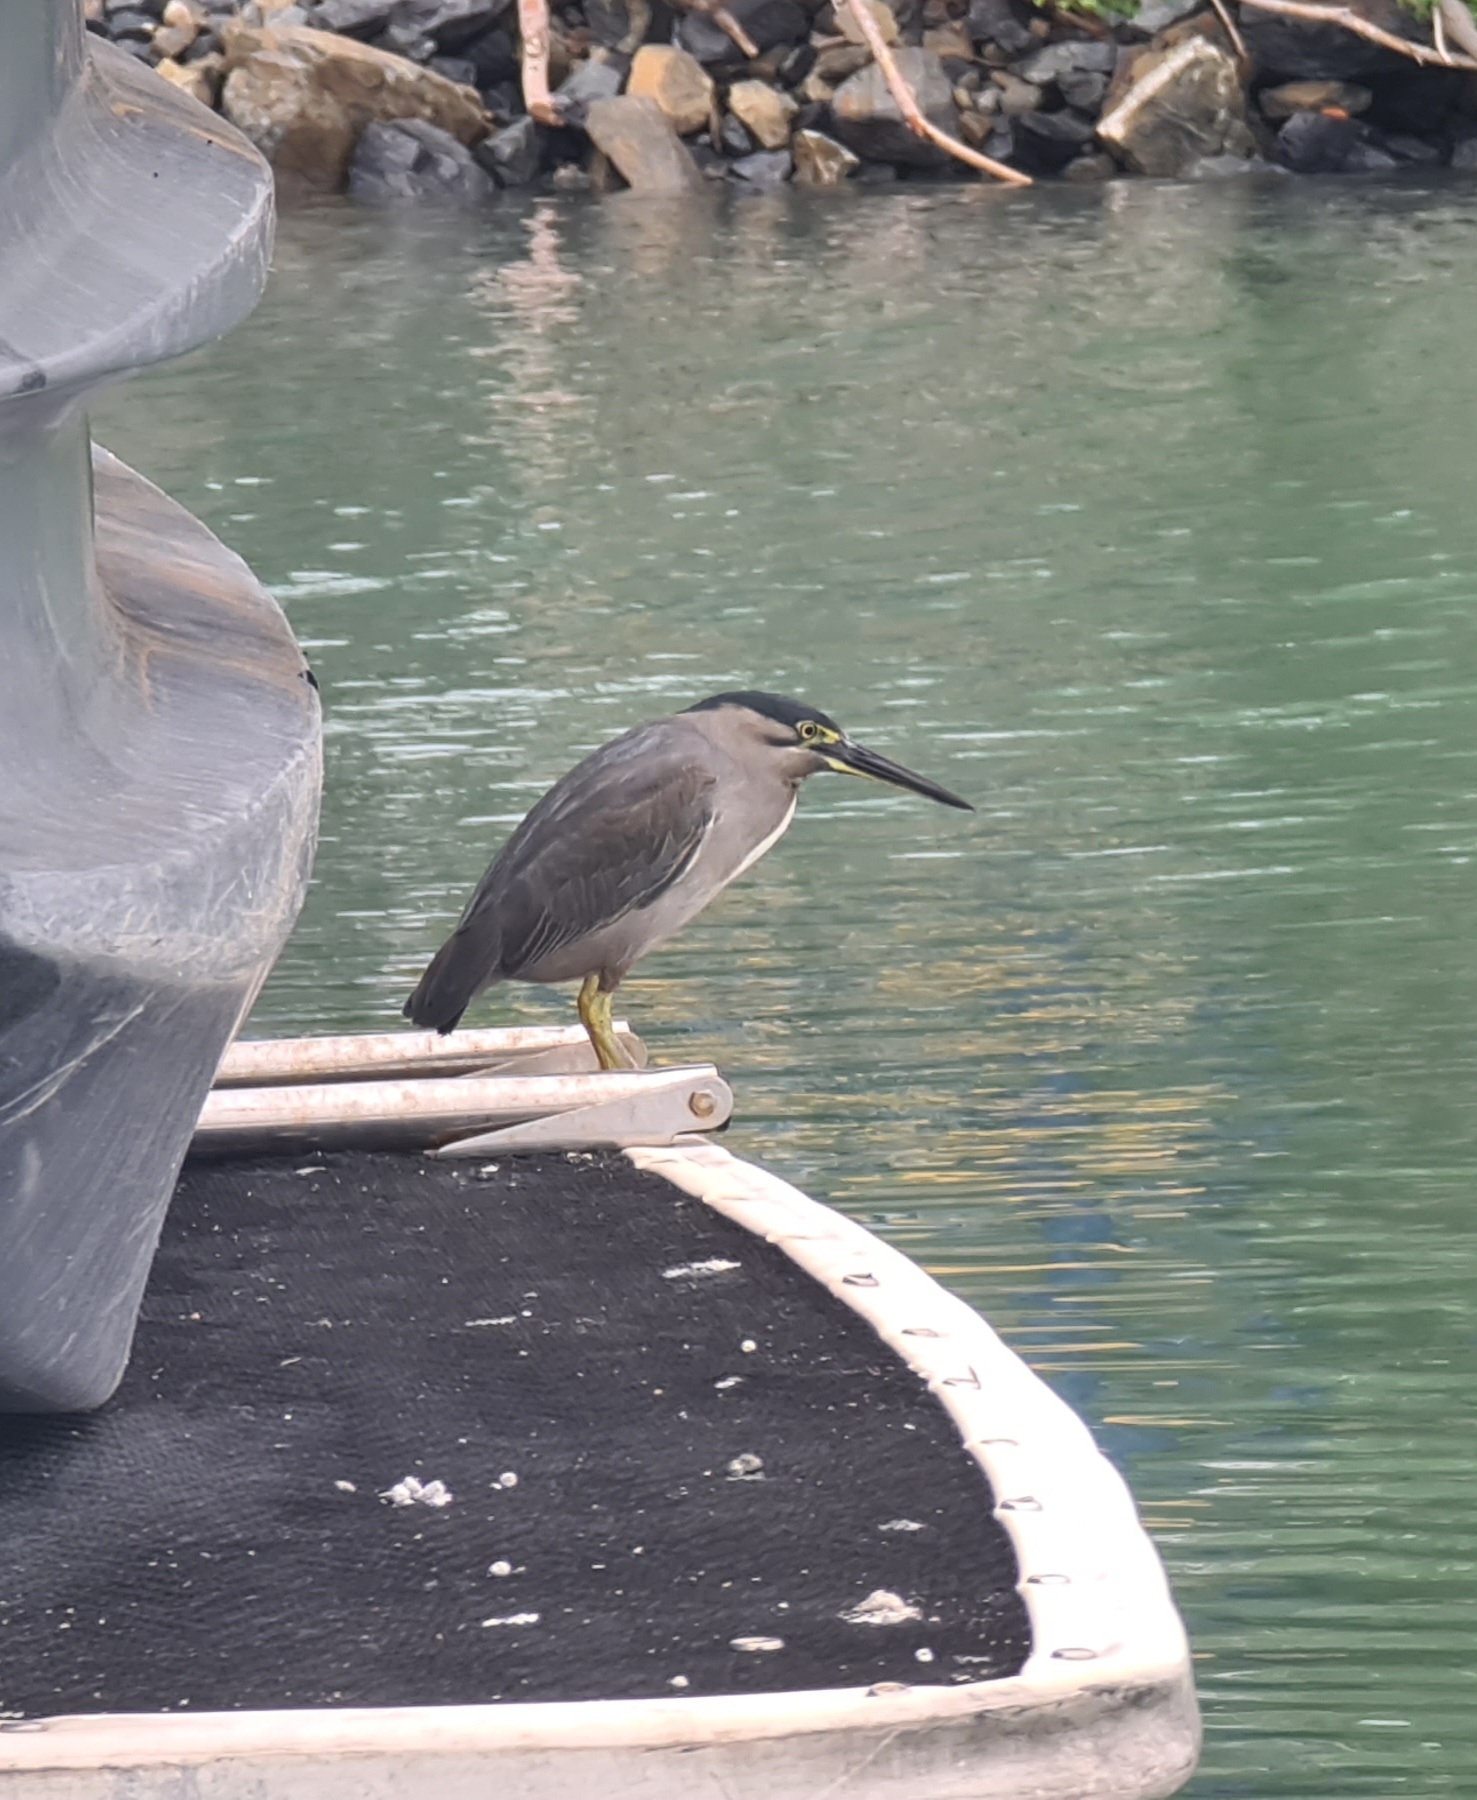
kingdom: Animalia
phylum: Chordata
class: Aves
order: Pelecaniformes
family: Ardeidae
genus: Butorides
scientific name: Butorides striata
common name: Striated heron
